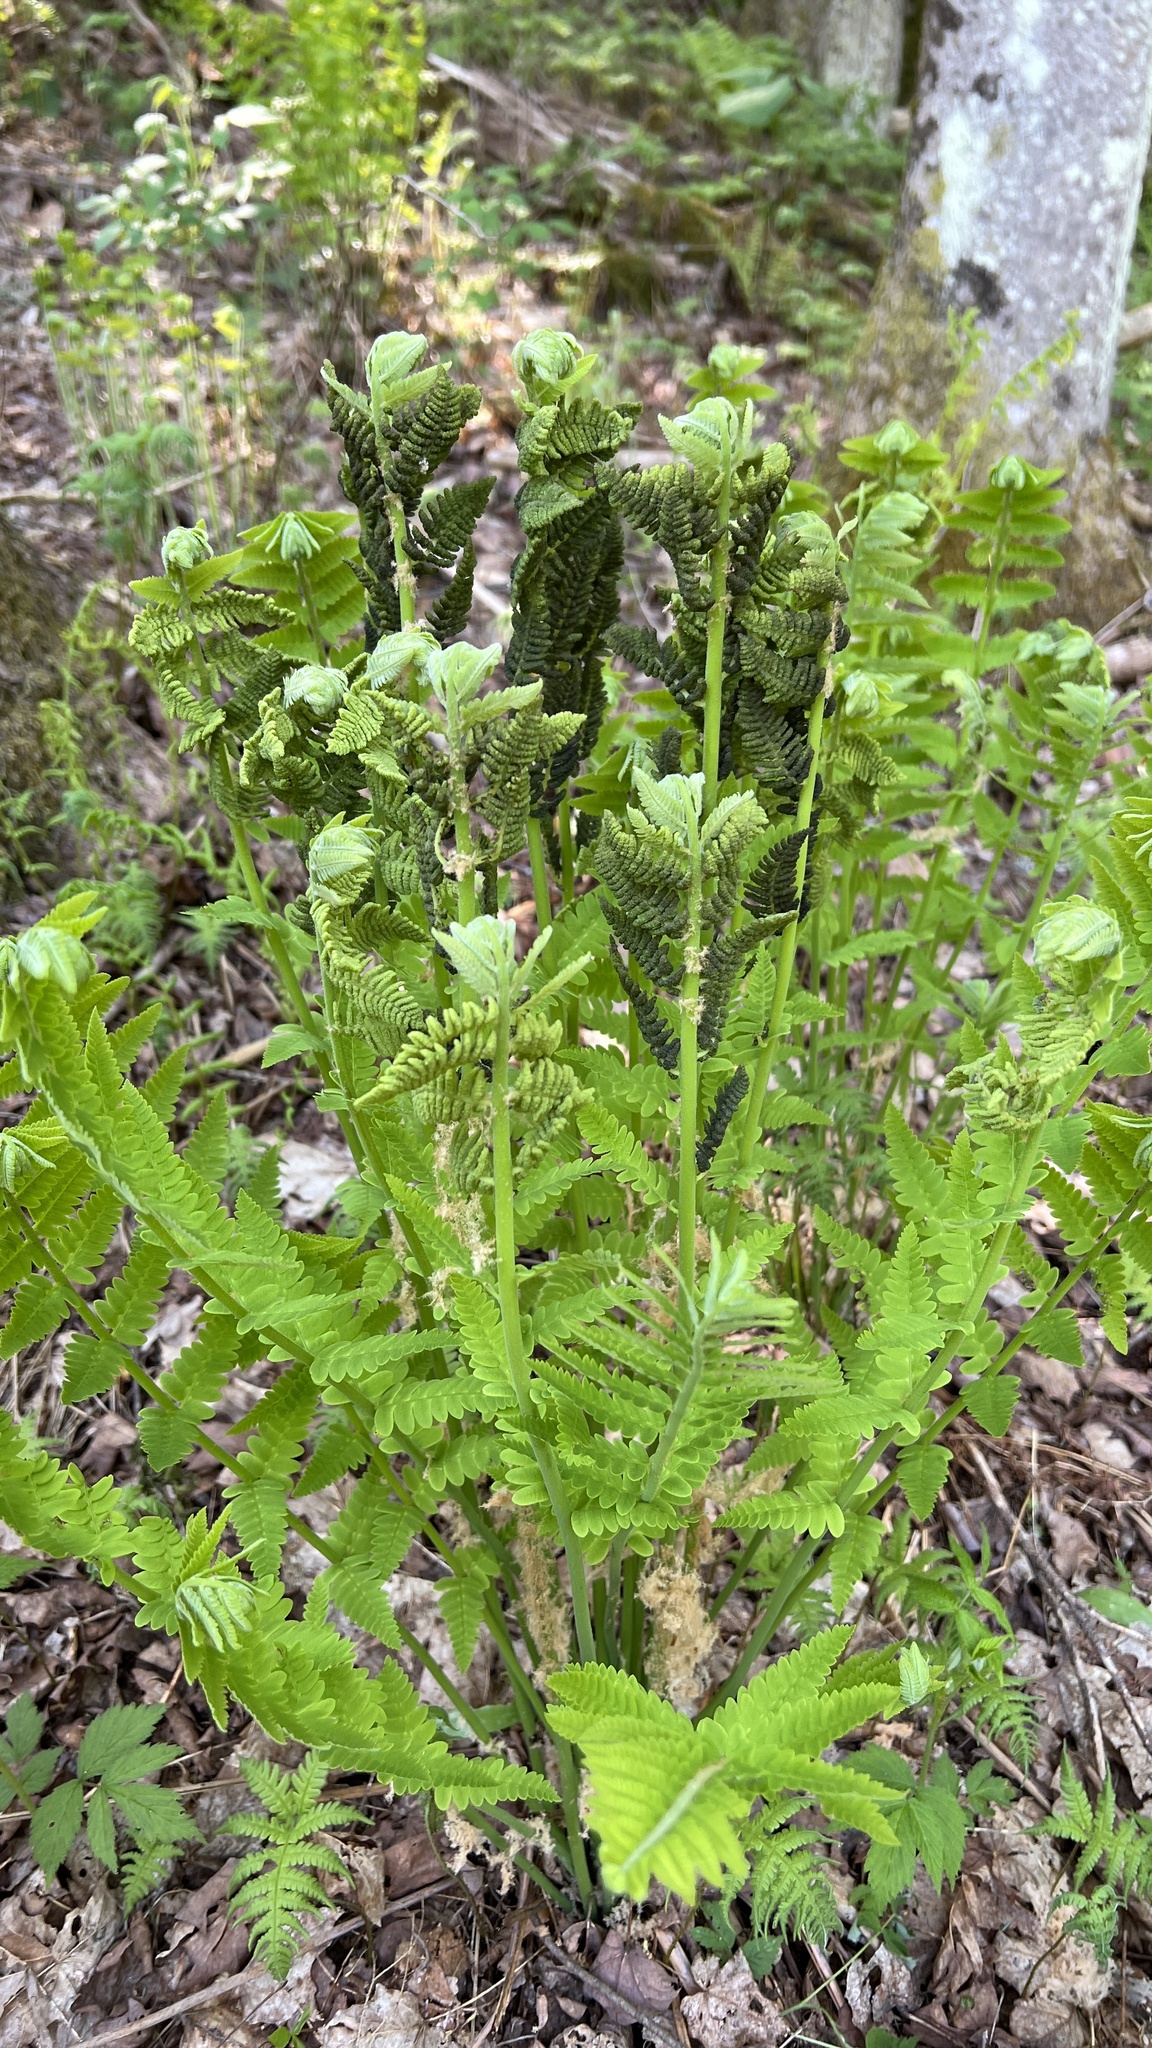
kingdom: Plantae
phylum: Tracheophyta
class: Polypodiopsida
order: Osmundales
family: Osmundaceae
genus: Claytosmunda
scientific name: Claytosmunda claytoniana
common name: Clayton's fern
